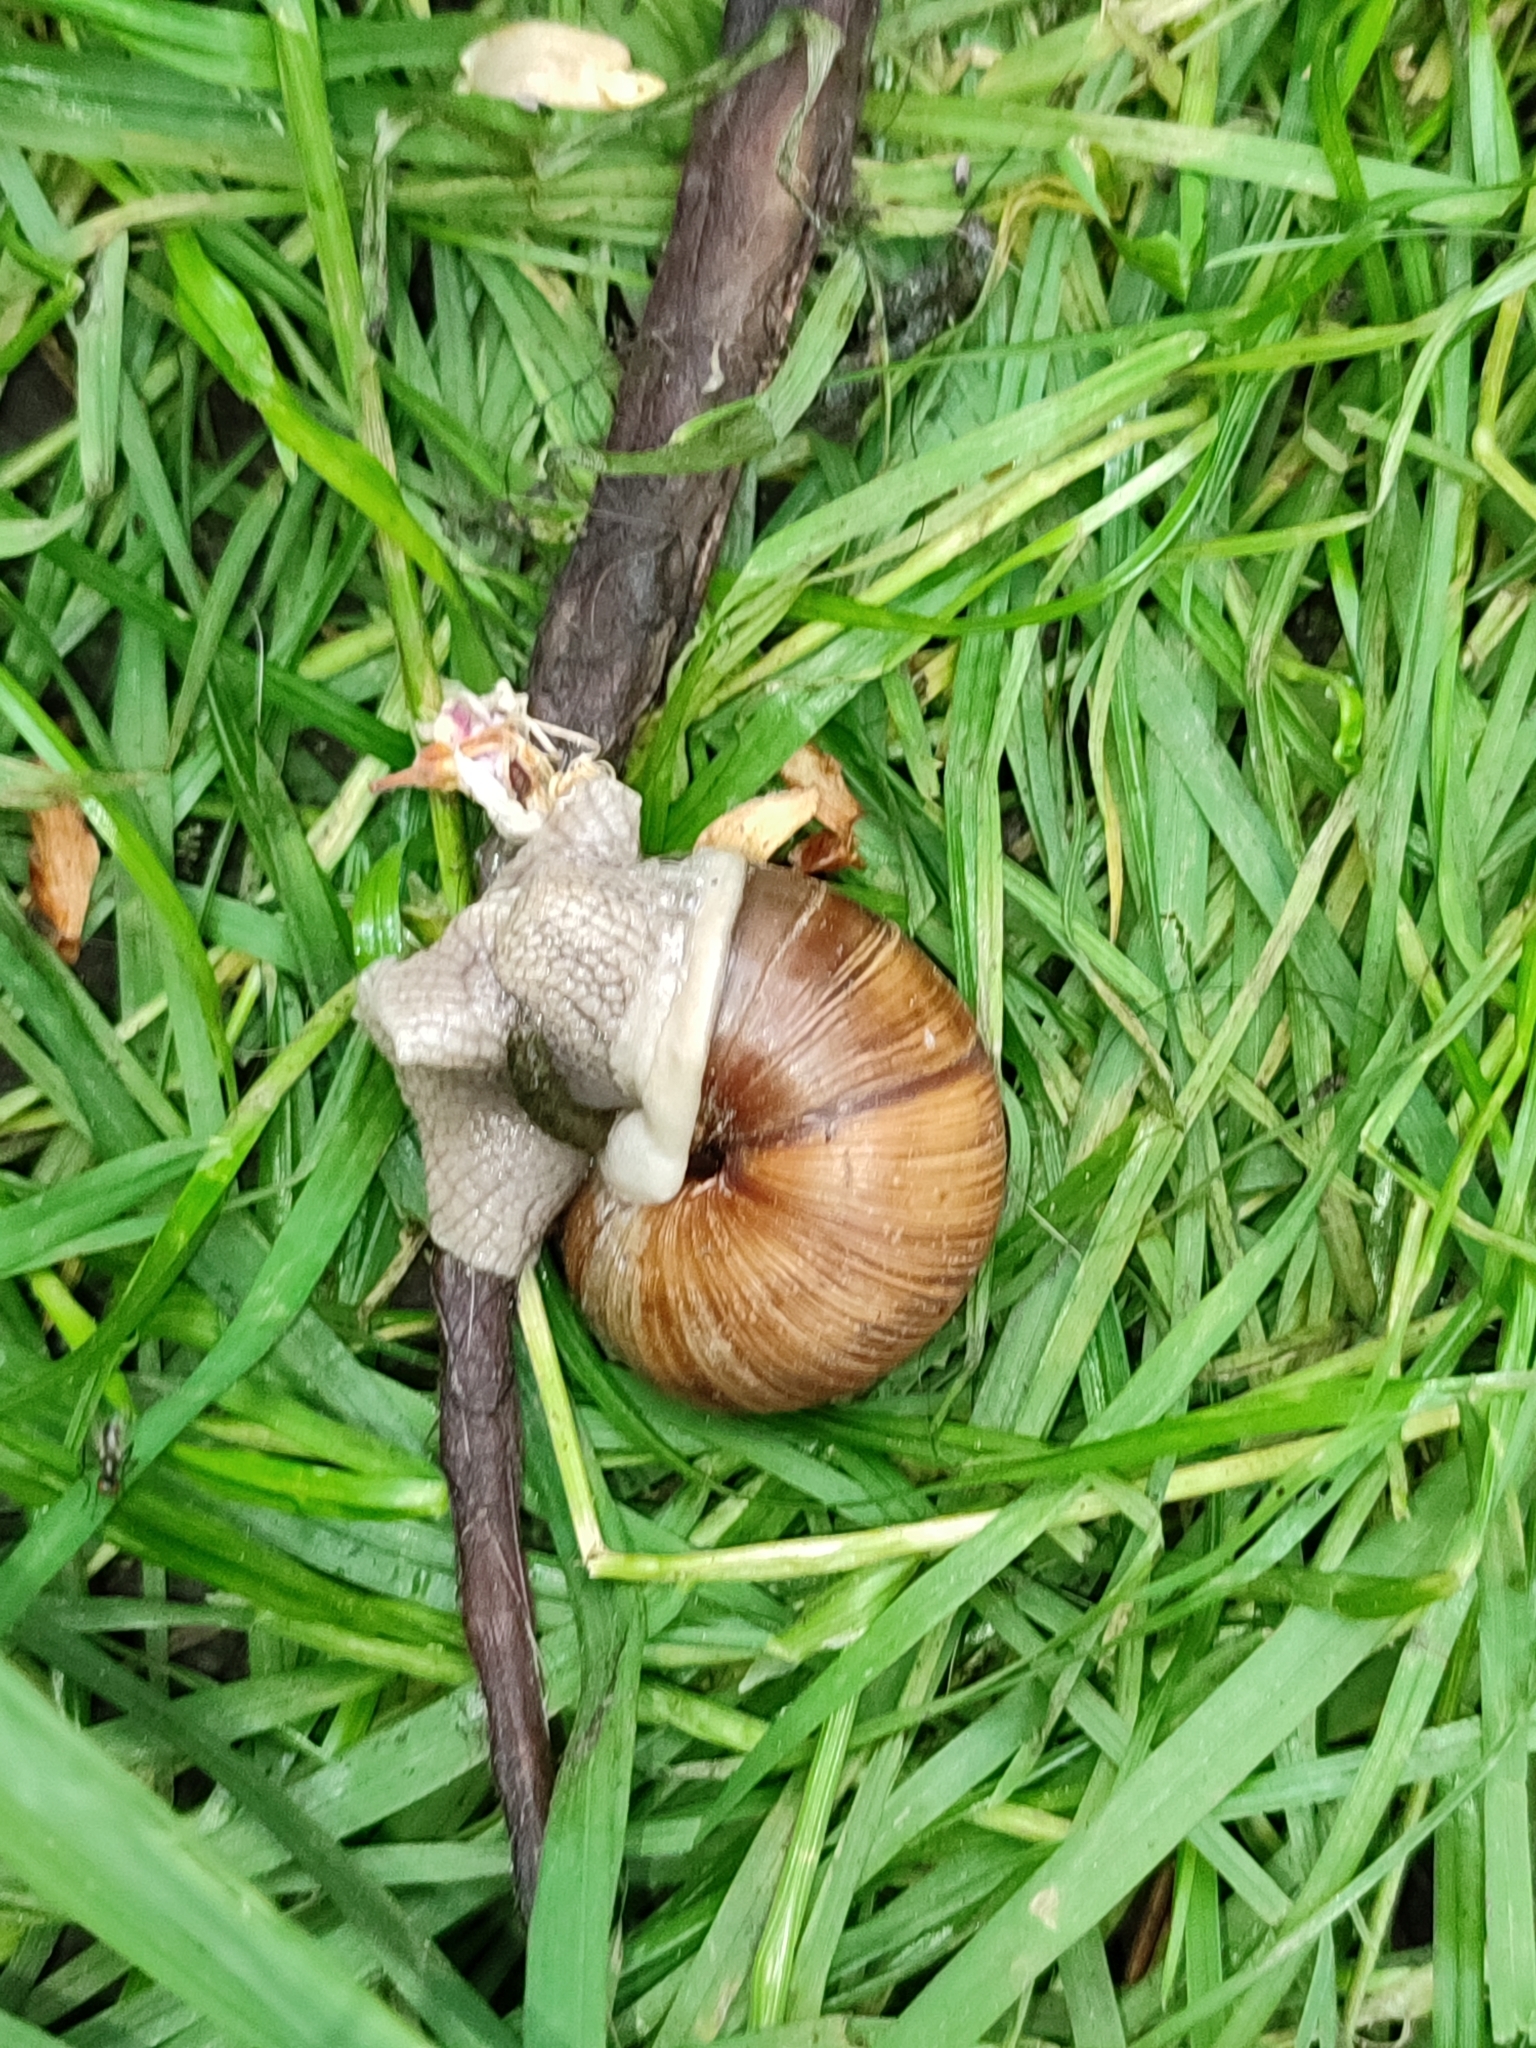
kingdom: Animalia
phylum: Mollusca
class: Gastropoda
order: Stylommatophora
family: Helicidae
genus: Helix
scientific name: Helix pomatia
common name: Roman snail
